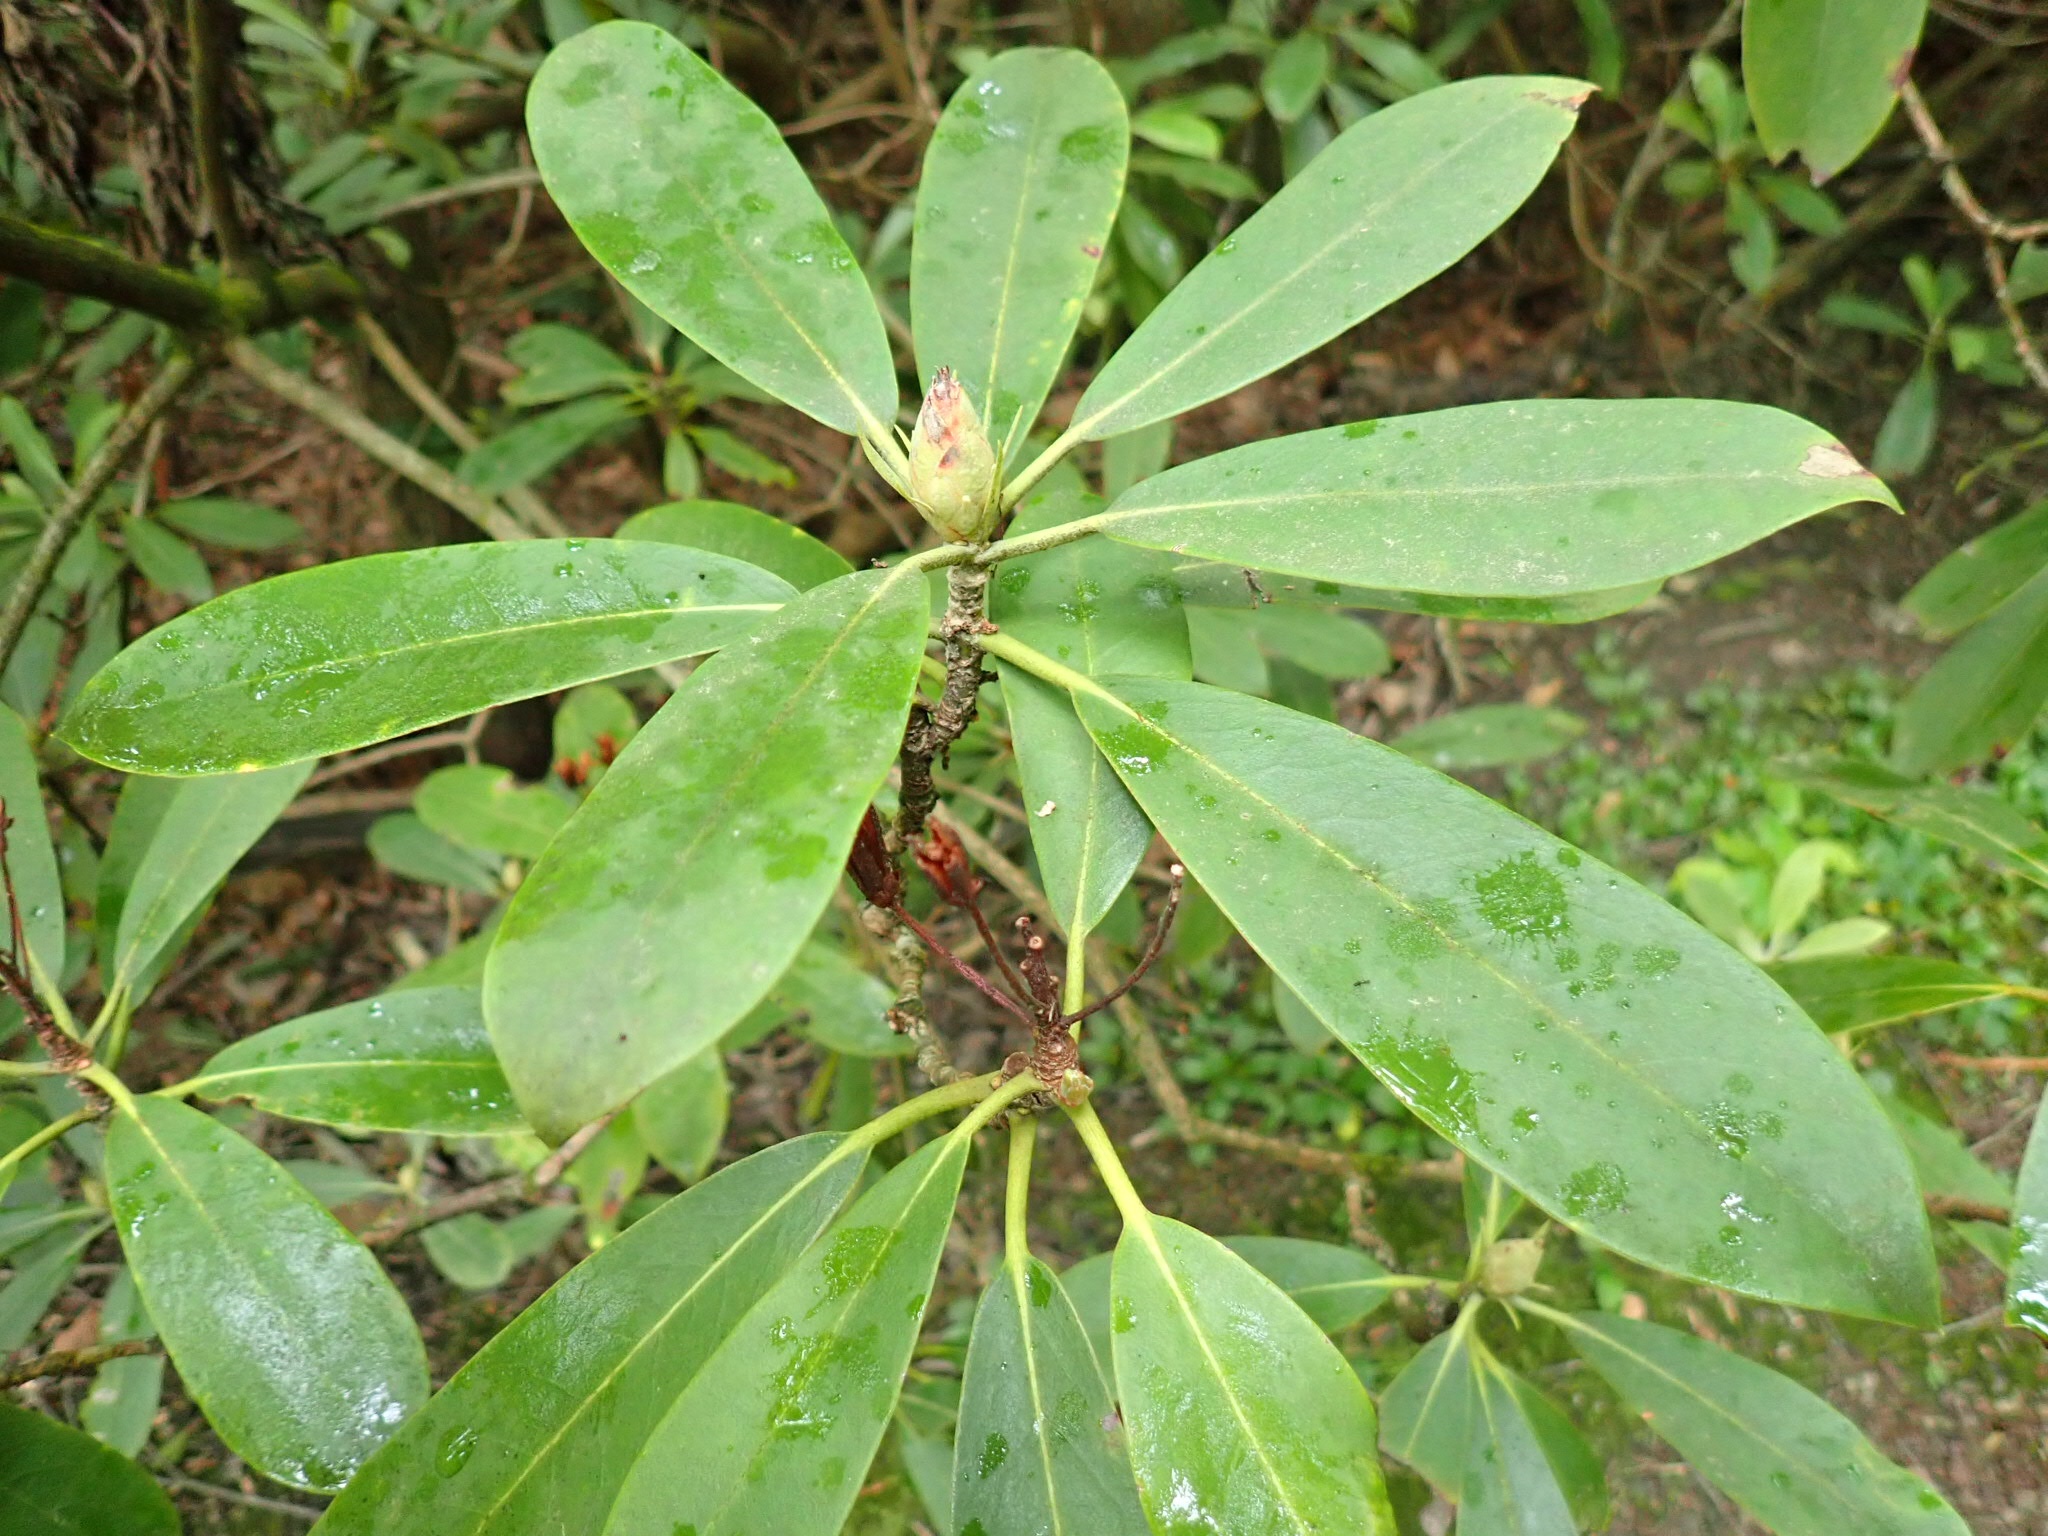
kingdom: Plantae
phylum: Tracheophyta
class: Magnoliopsida
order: Ericales
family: Ericaceae
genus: Rhododendron
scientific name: Rhododendron maximum
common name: Great rhododendron
